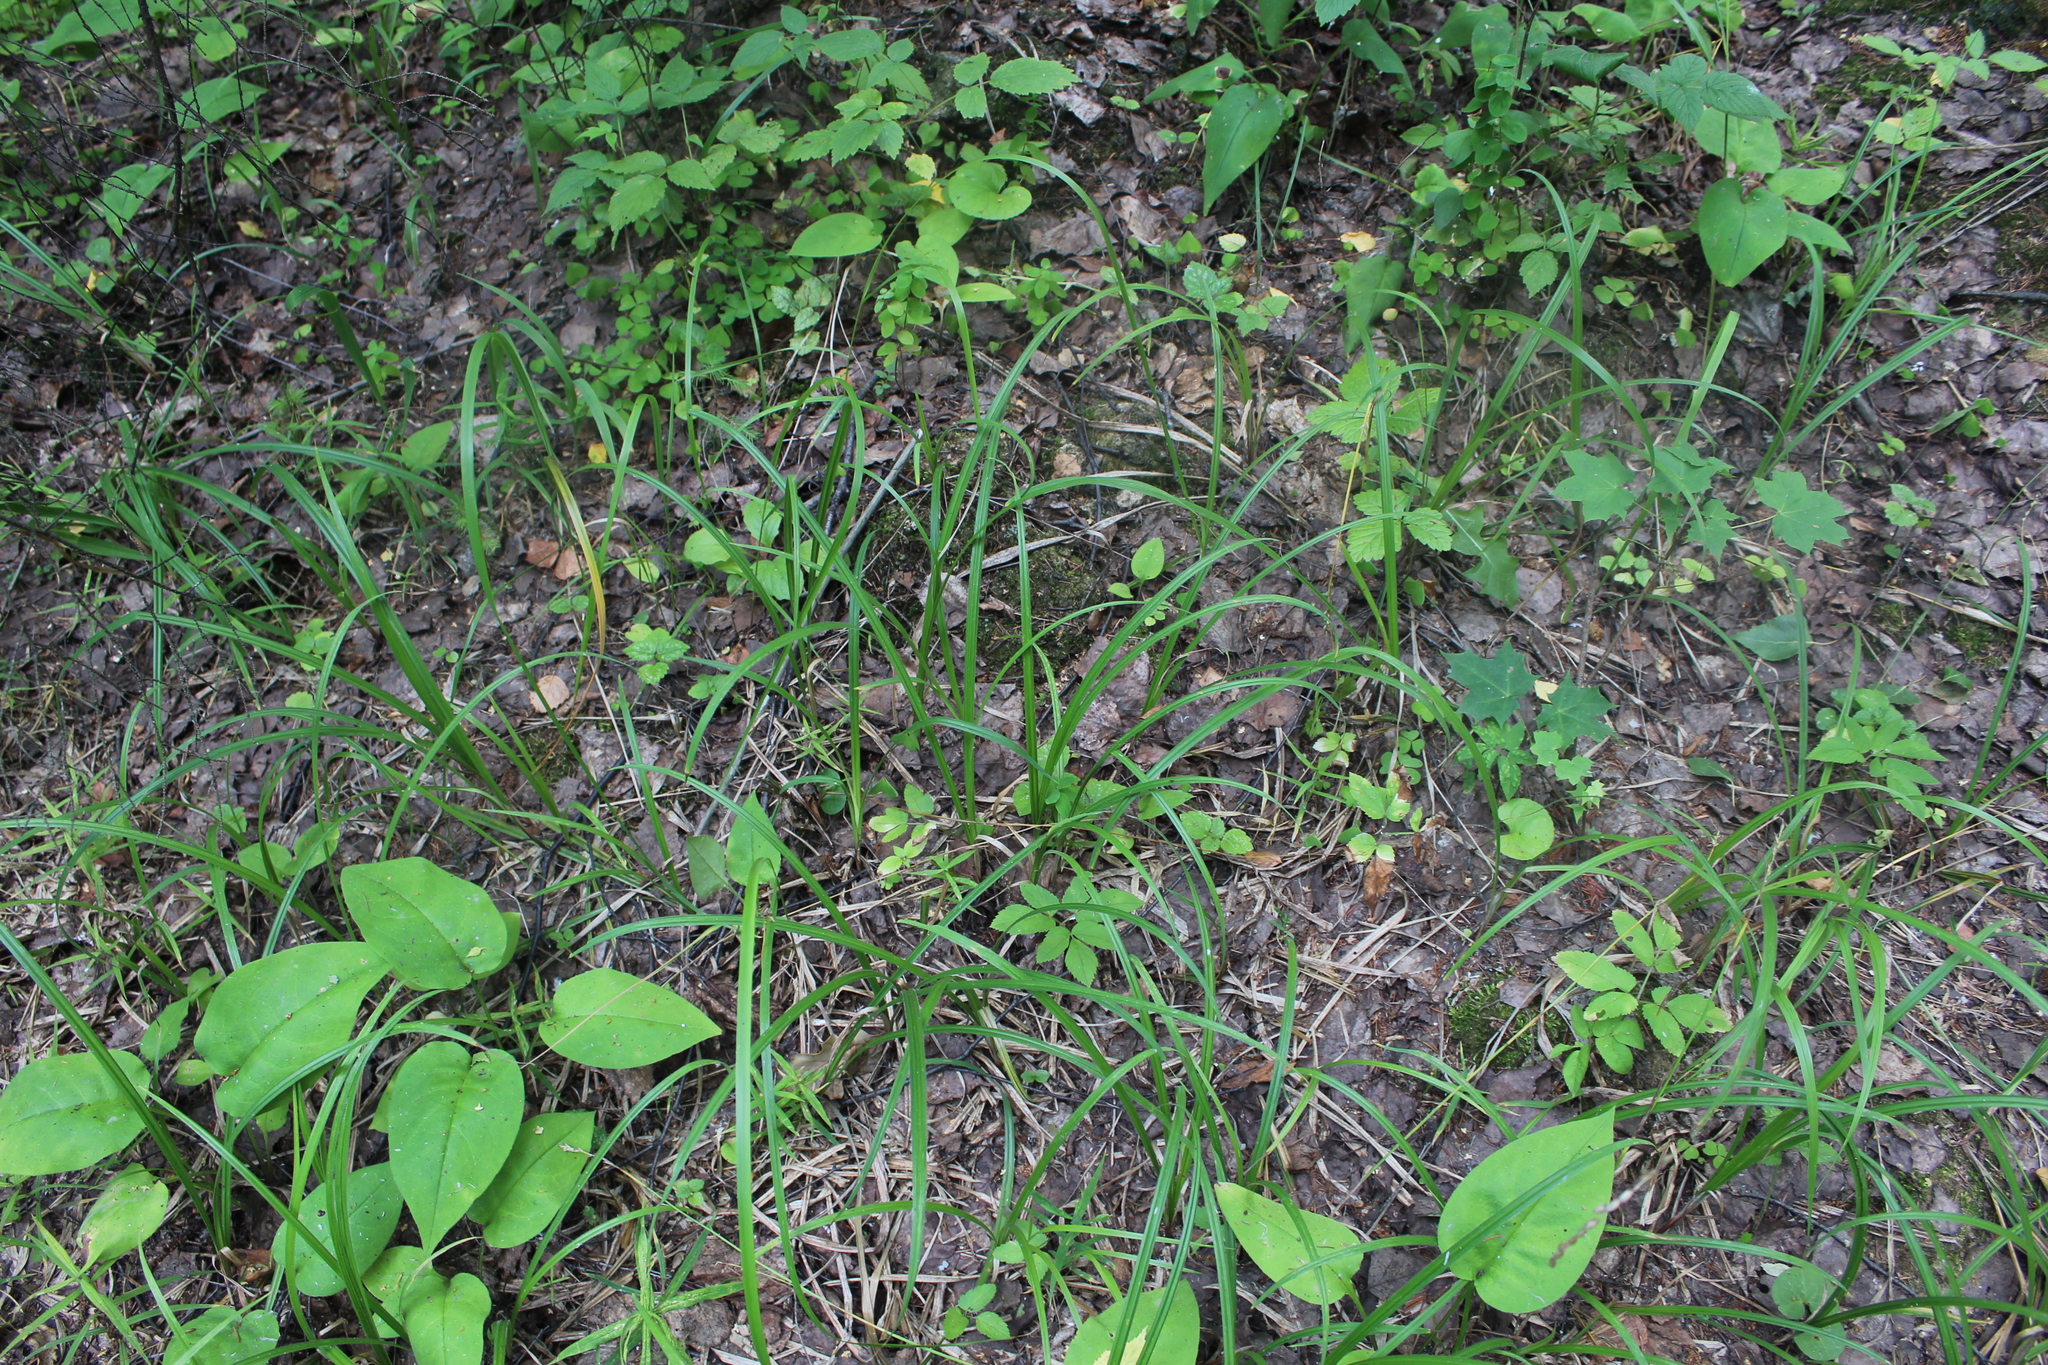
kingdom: Plantae
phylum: Tracheophyta
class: Liliopsida
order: Poales
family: Cyperaceae
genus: Carex
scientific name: Carex pilosa
